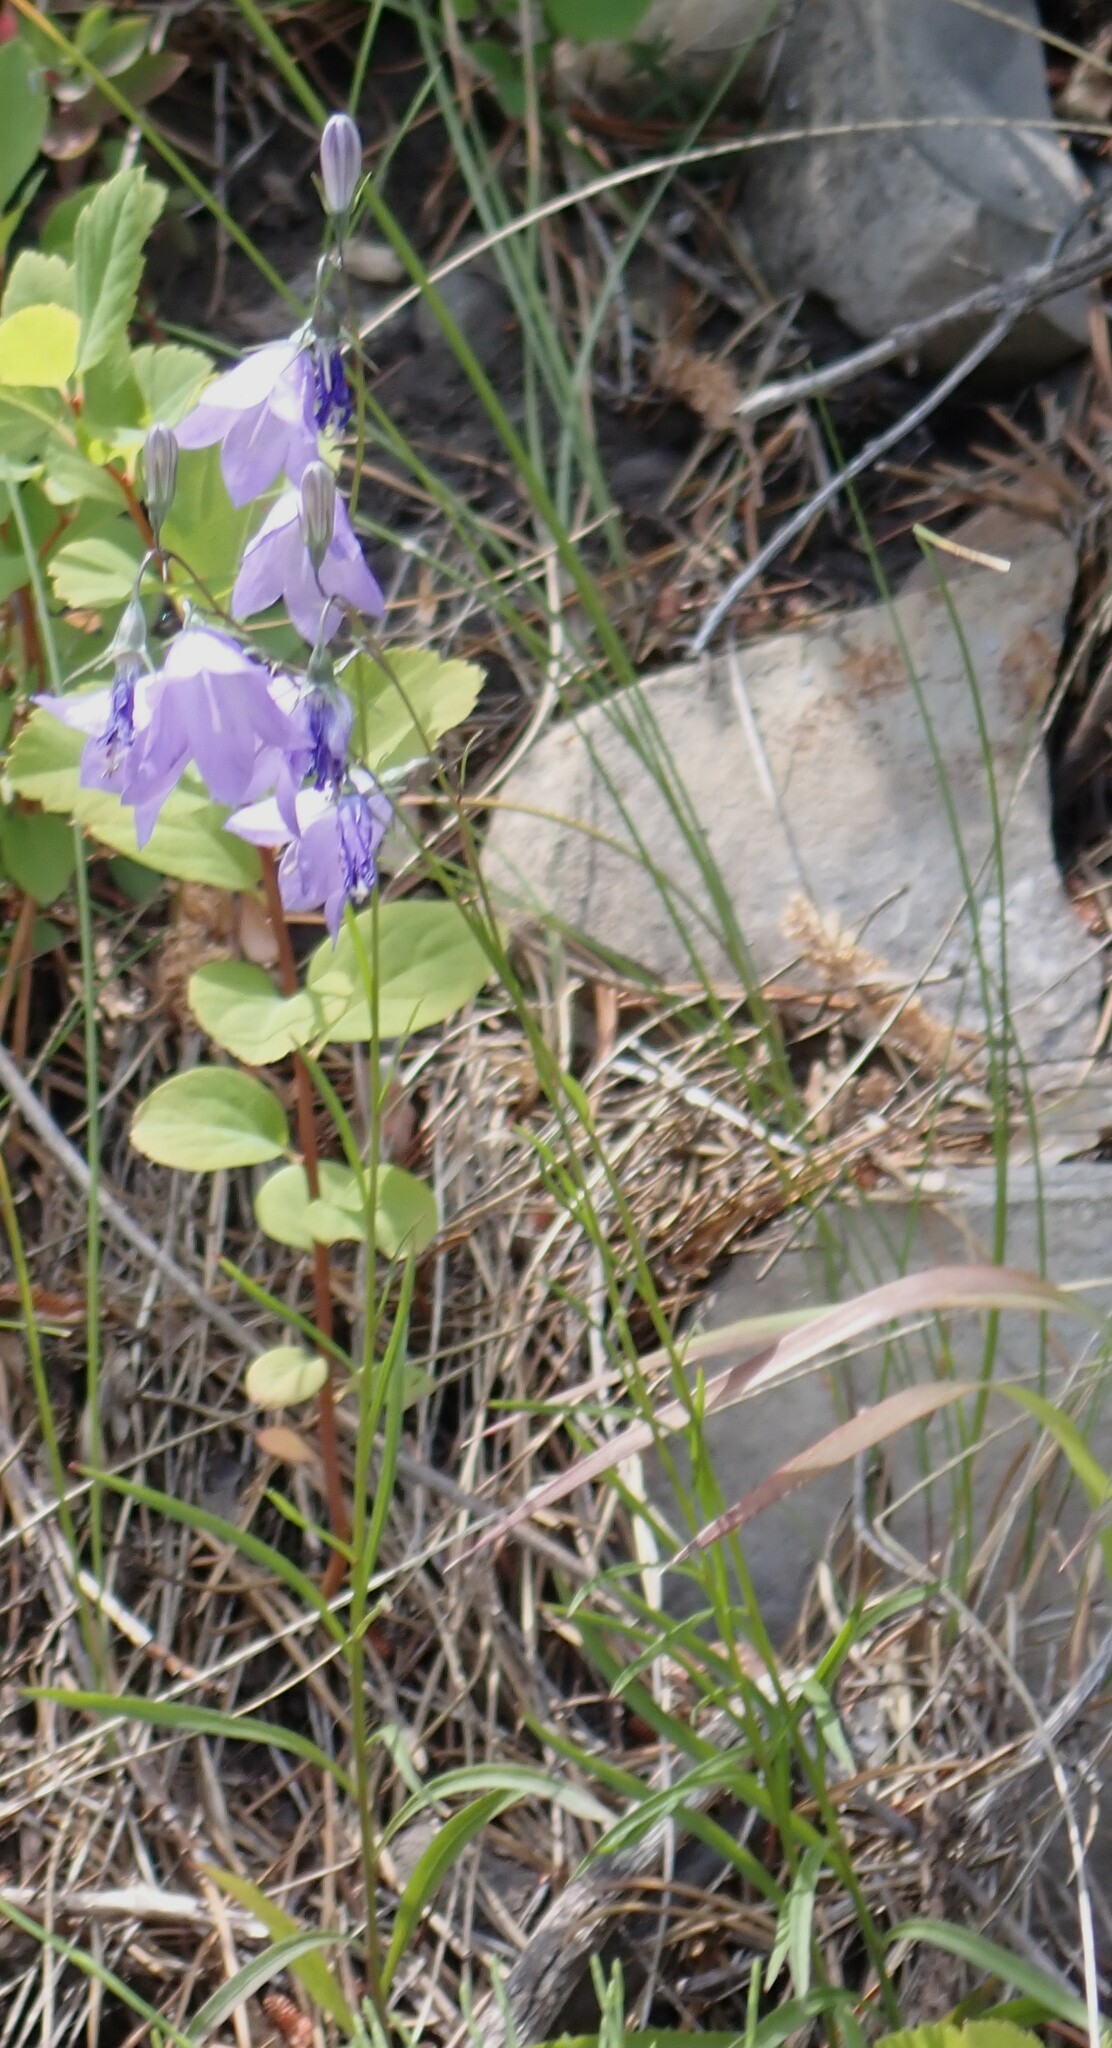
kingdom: Plantae
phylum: Tracheophyta
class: Magnoliopsida
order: Asterales
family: Campanulaceae
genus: Campanula
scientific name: Campanula alaskana
